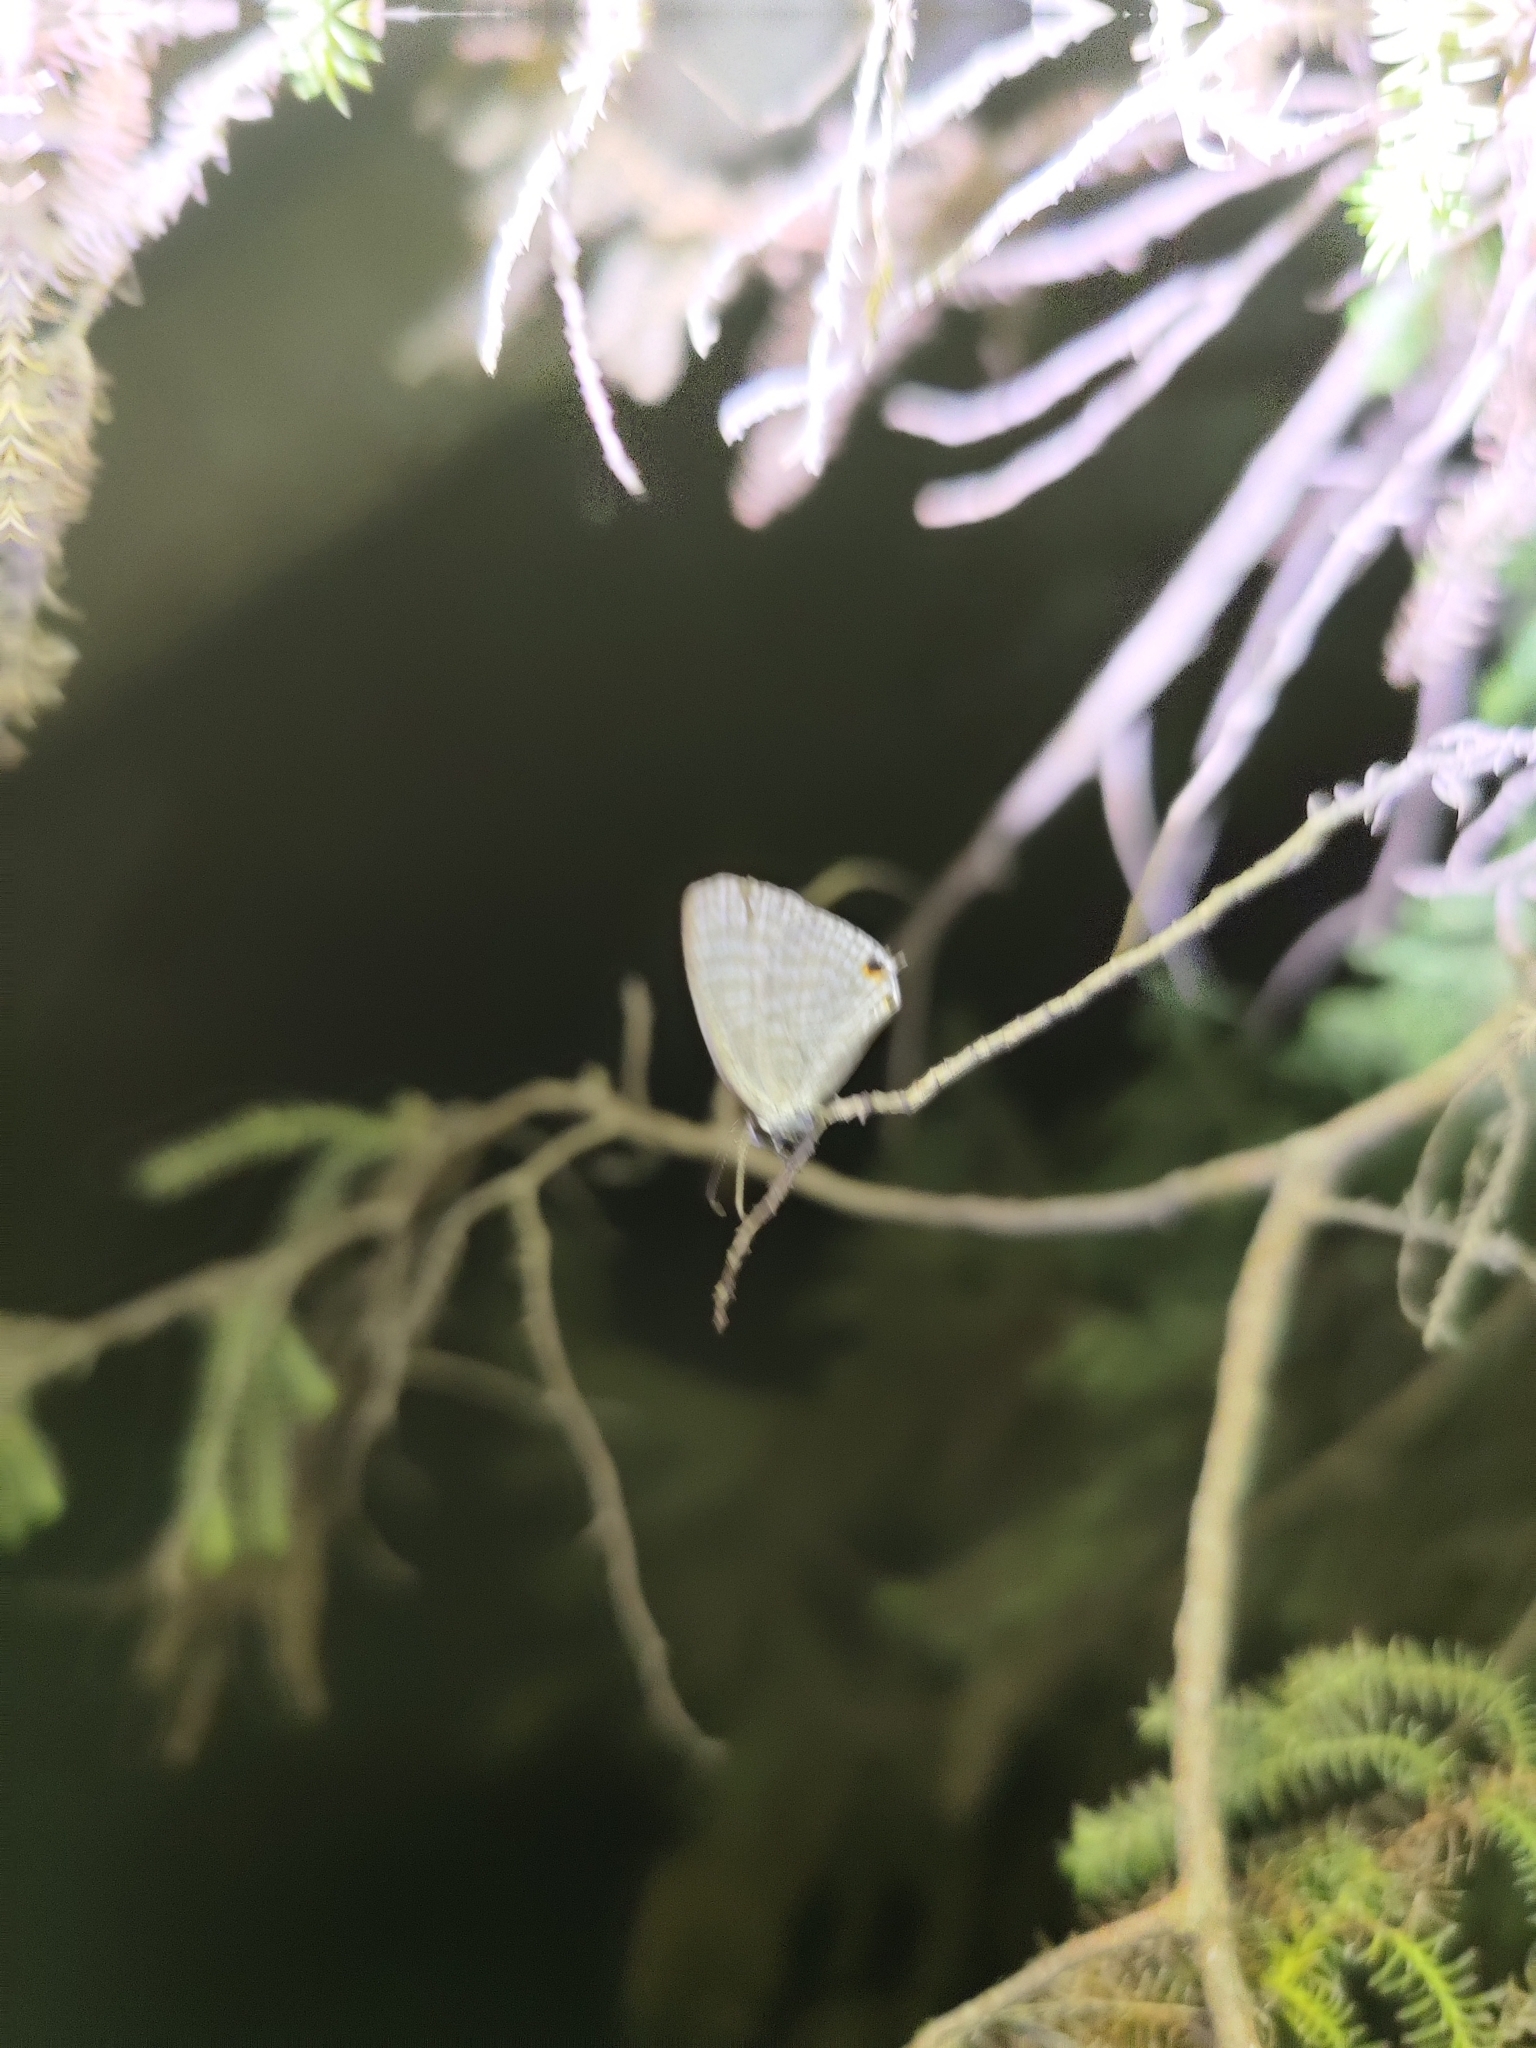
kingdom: Animalia
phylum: Arthropoda
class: Insecta
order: Lepidoptera
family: Lycaenidae
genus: Jamides
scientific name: Jamides celeno
